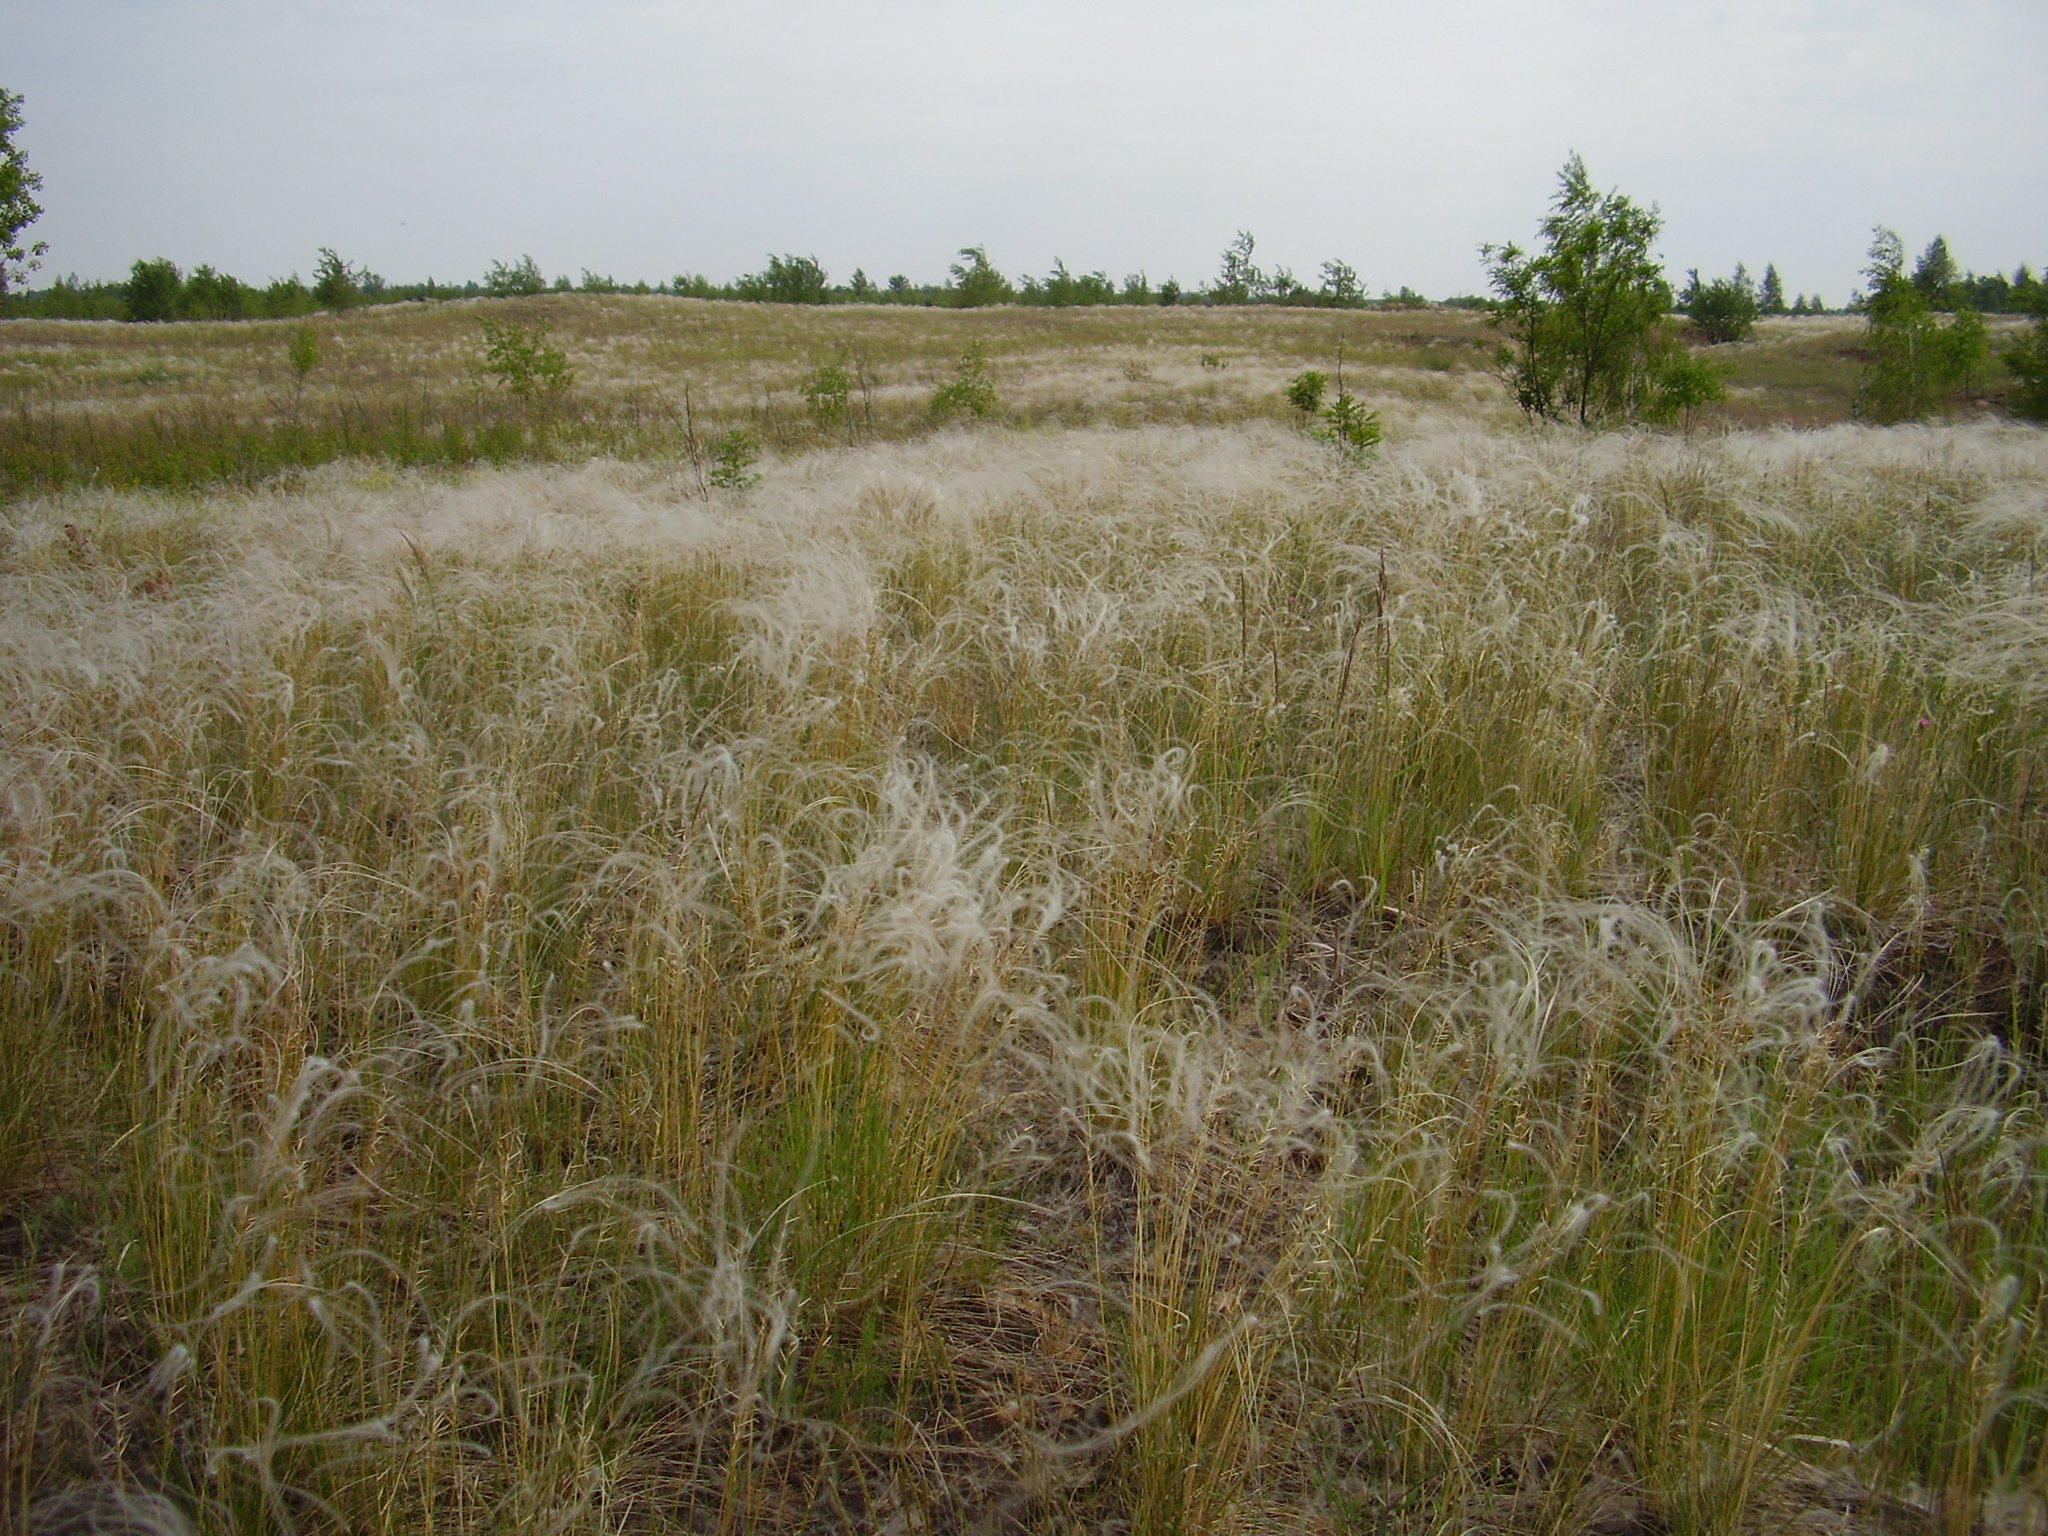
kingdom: Plantae
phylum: Tracheophyta
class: Liliopsida
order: Poales
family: Poaceae
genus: Stipa
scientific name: Stipa borysthenica
